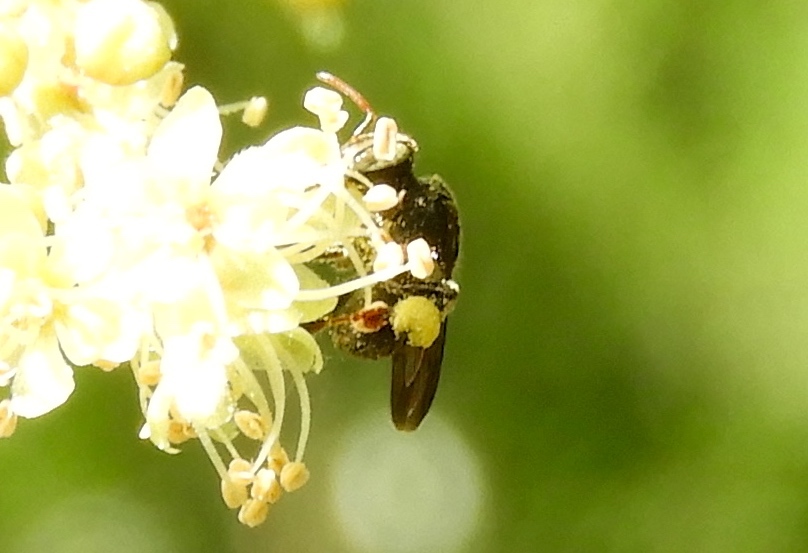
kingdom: Animalia
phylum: Arthropoda
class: Insecta
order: Hymenoptera
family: Apidae
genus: Nannotrigona
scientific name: Nannotrigona perilampoides
